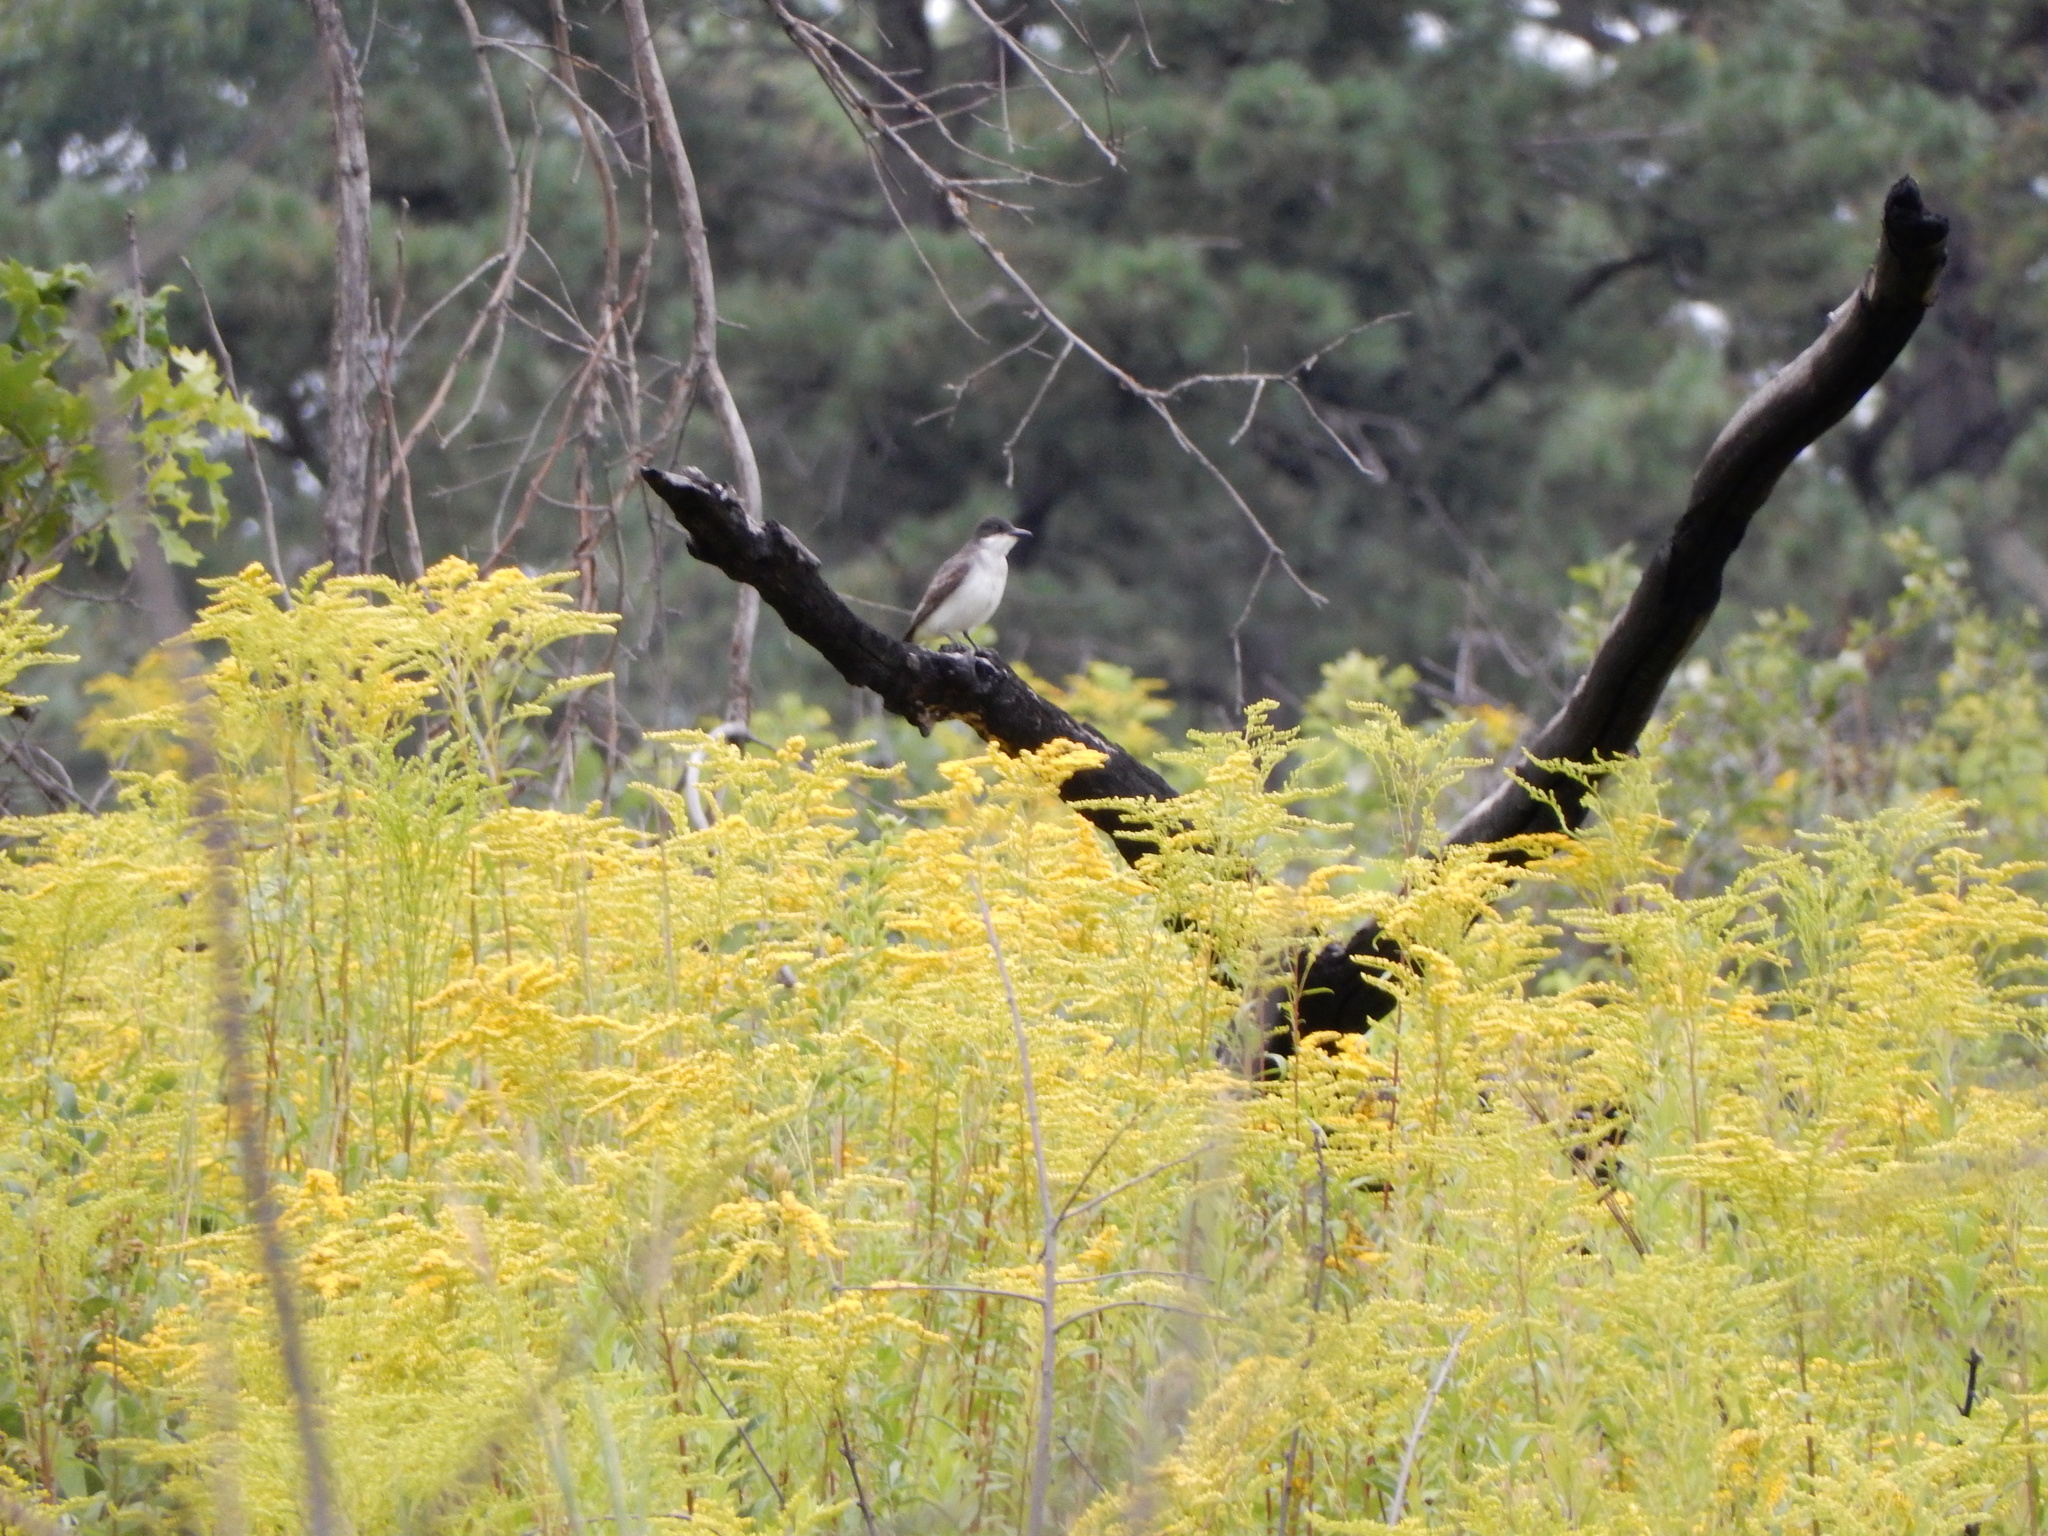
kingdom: Animalia
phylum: Chordata
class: Aves
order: Passeriformes
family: Tyrannidae
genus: Tyrannus
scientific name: Tyrannus tyrannus
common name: Eastern kingbird
